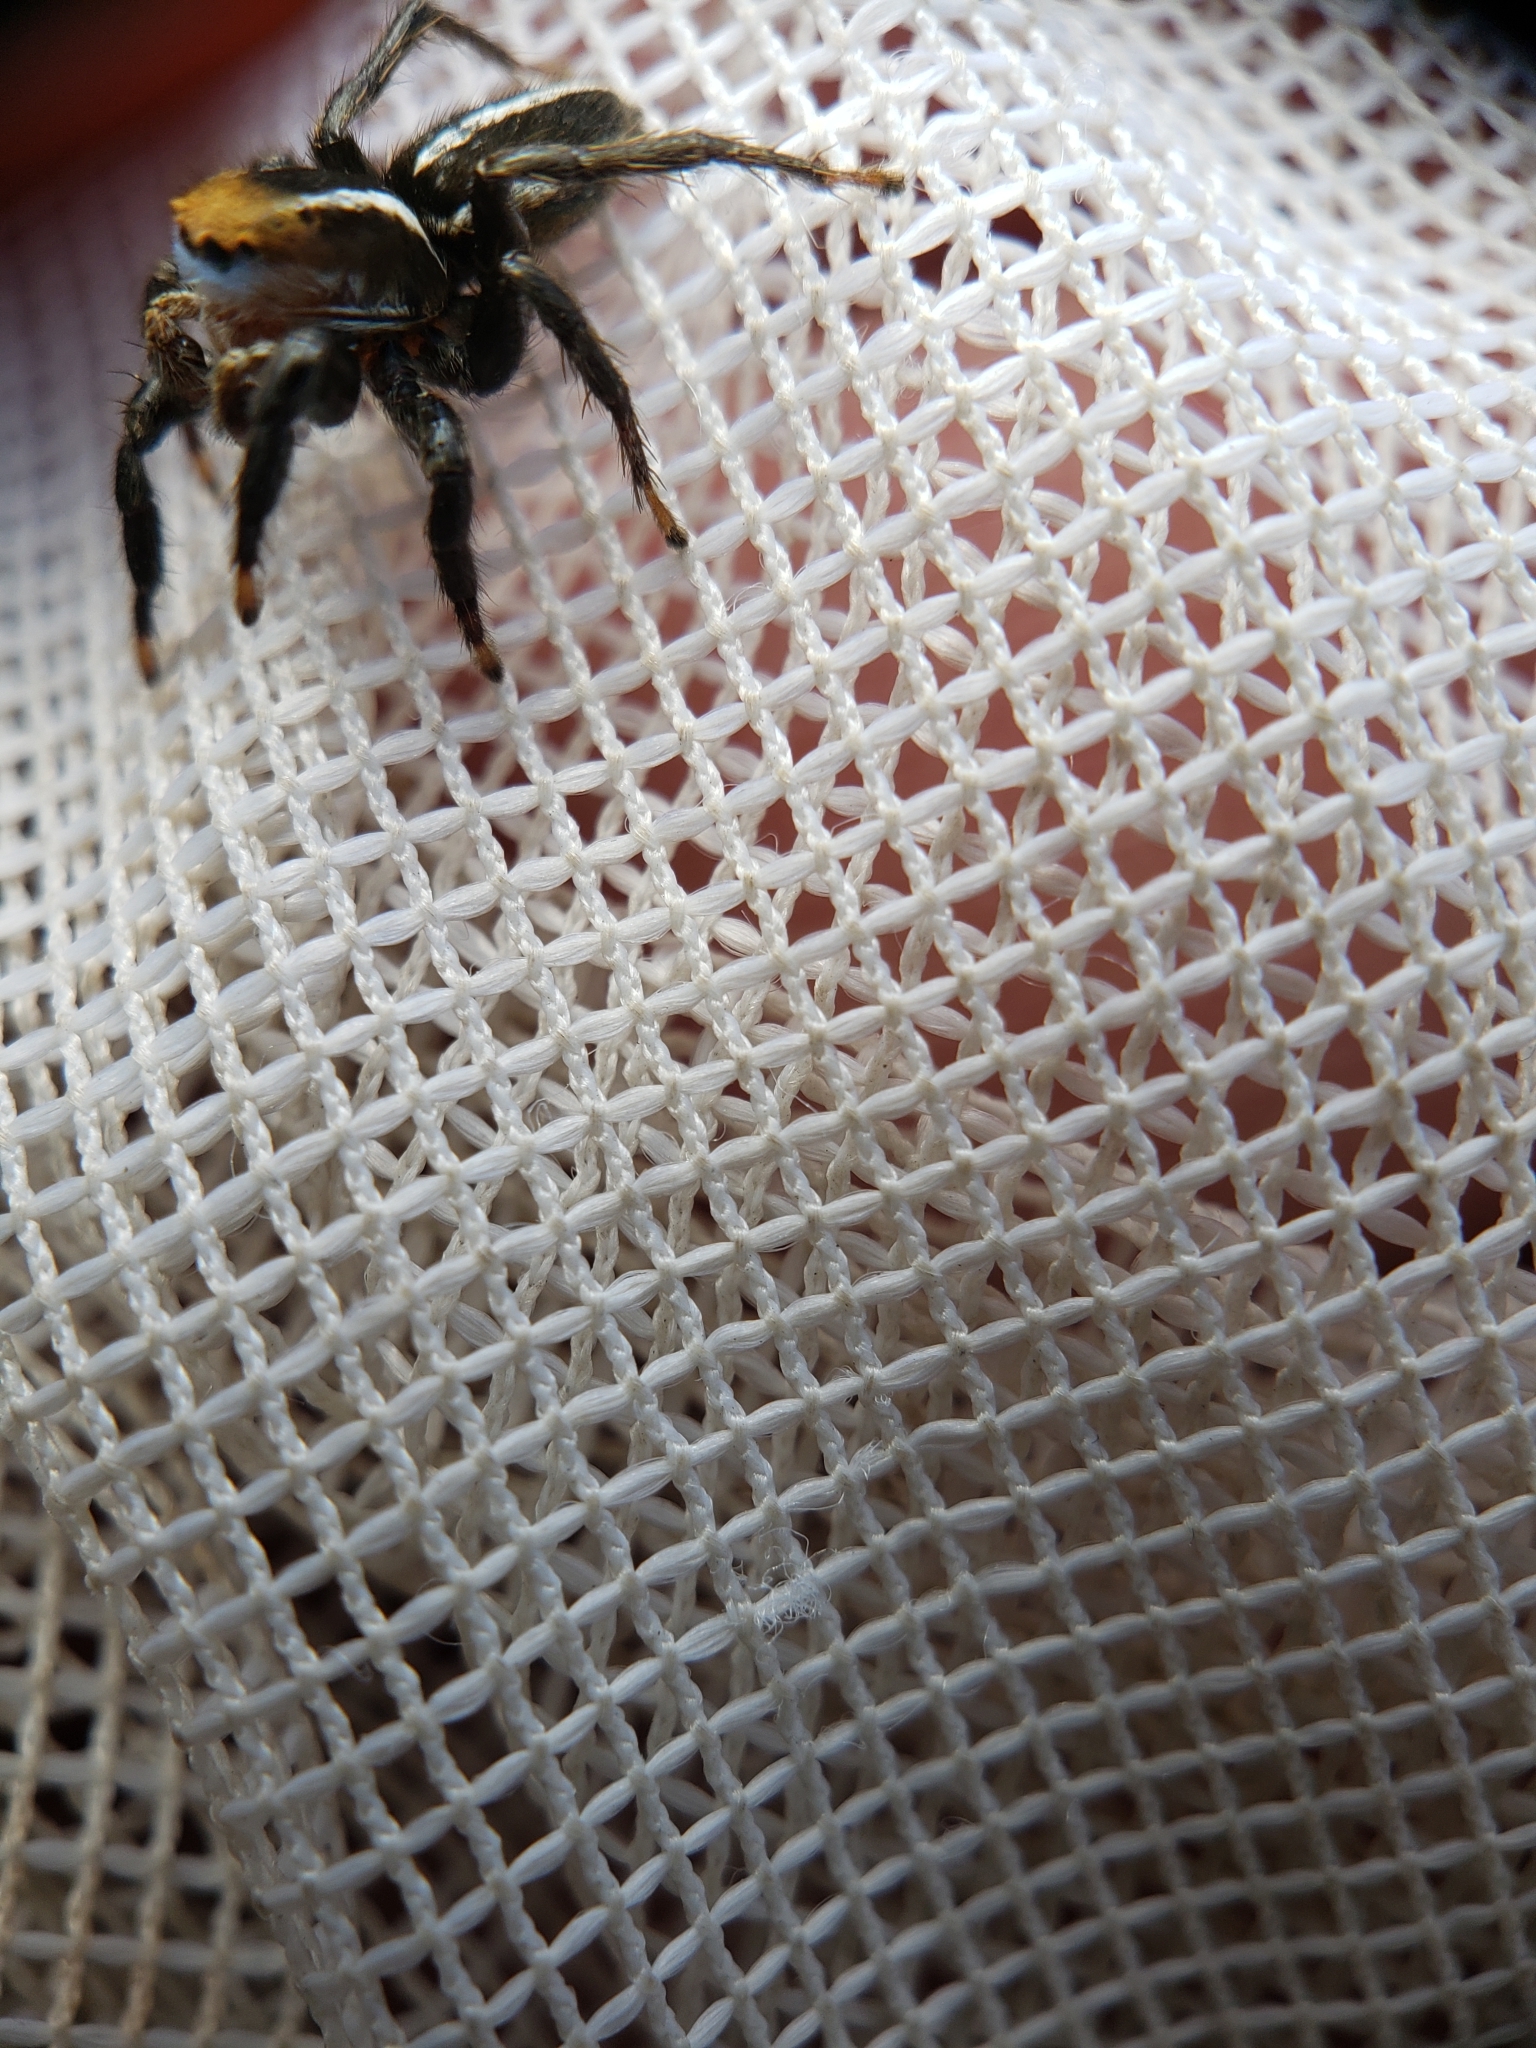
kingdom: Animalia
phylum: Arthropoda
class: Arachnida
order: Araneae
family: Salticidae
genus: Phlegra
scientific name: Phlegra hentzi
